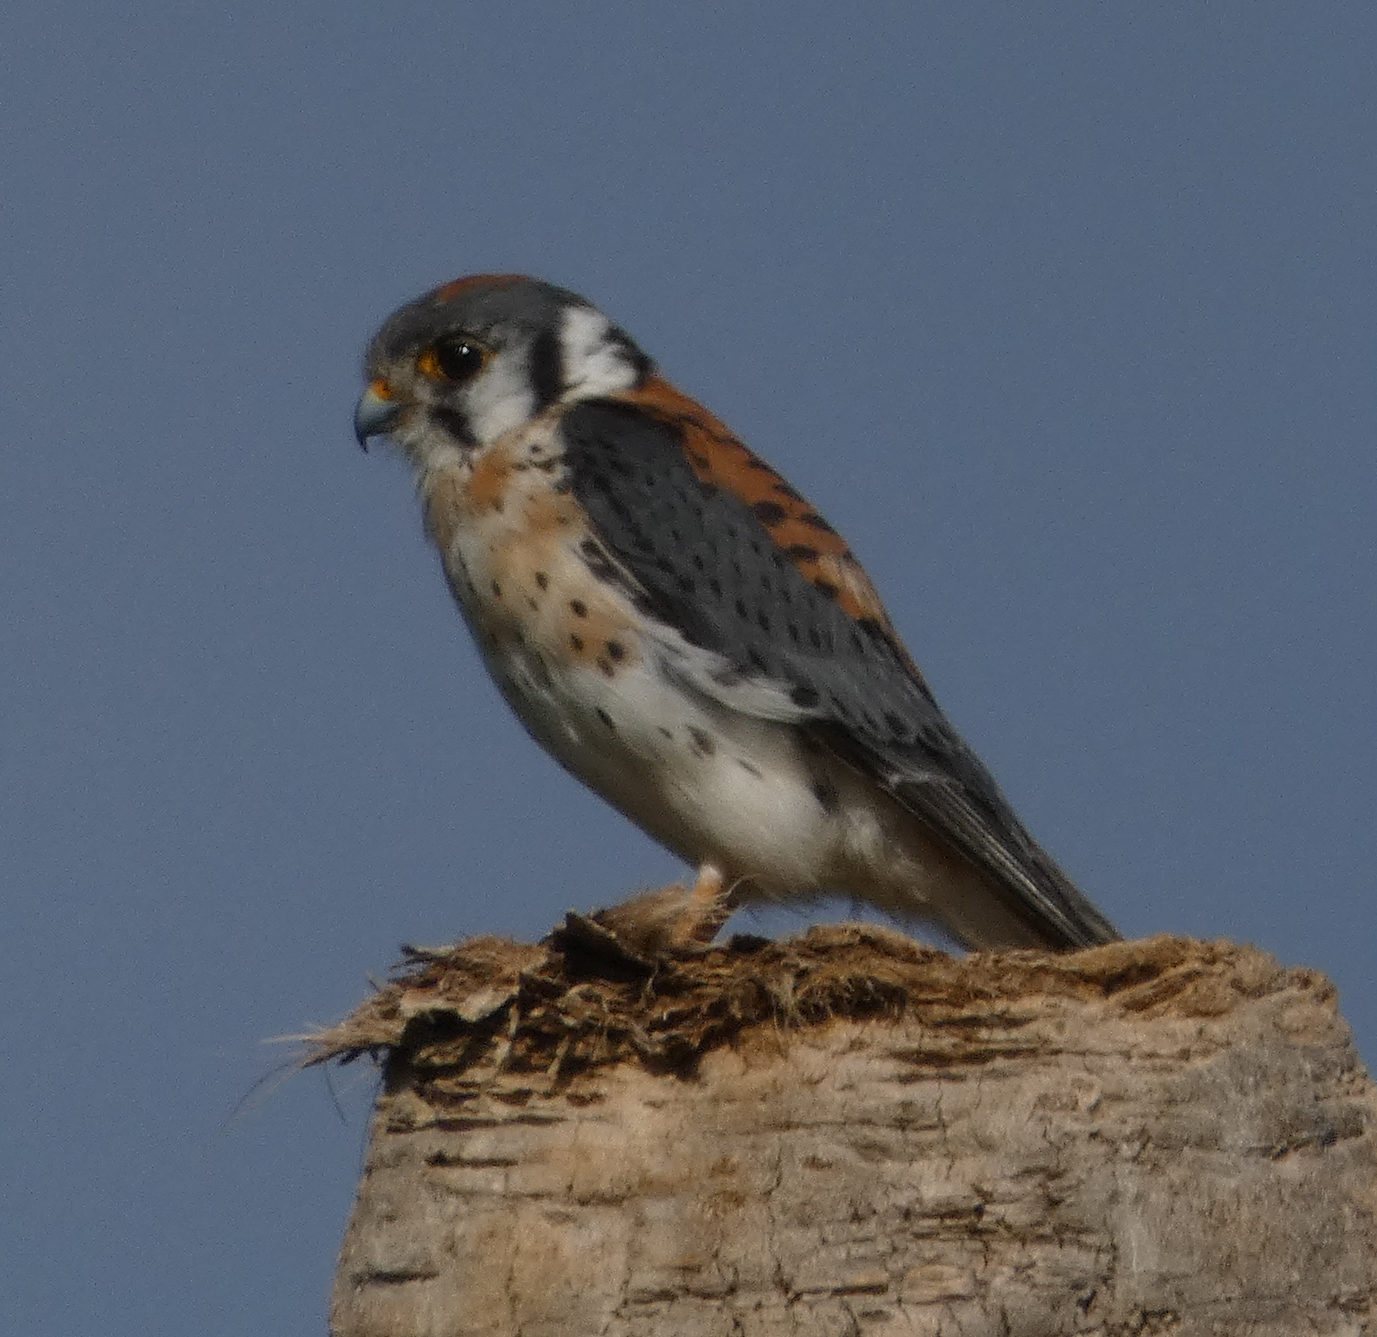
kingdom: Animalia
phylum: Chordata
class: Aves
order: Falconiformes
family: Falconidae
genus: Falco
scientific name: Falco sparverius
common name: American kestrel
